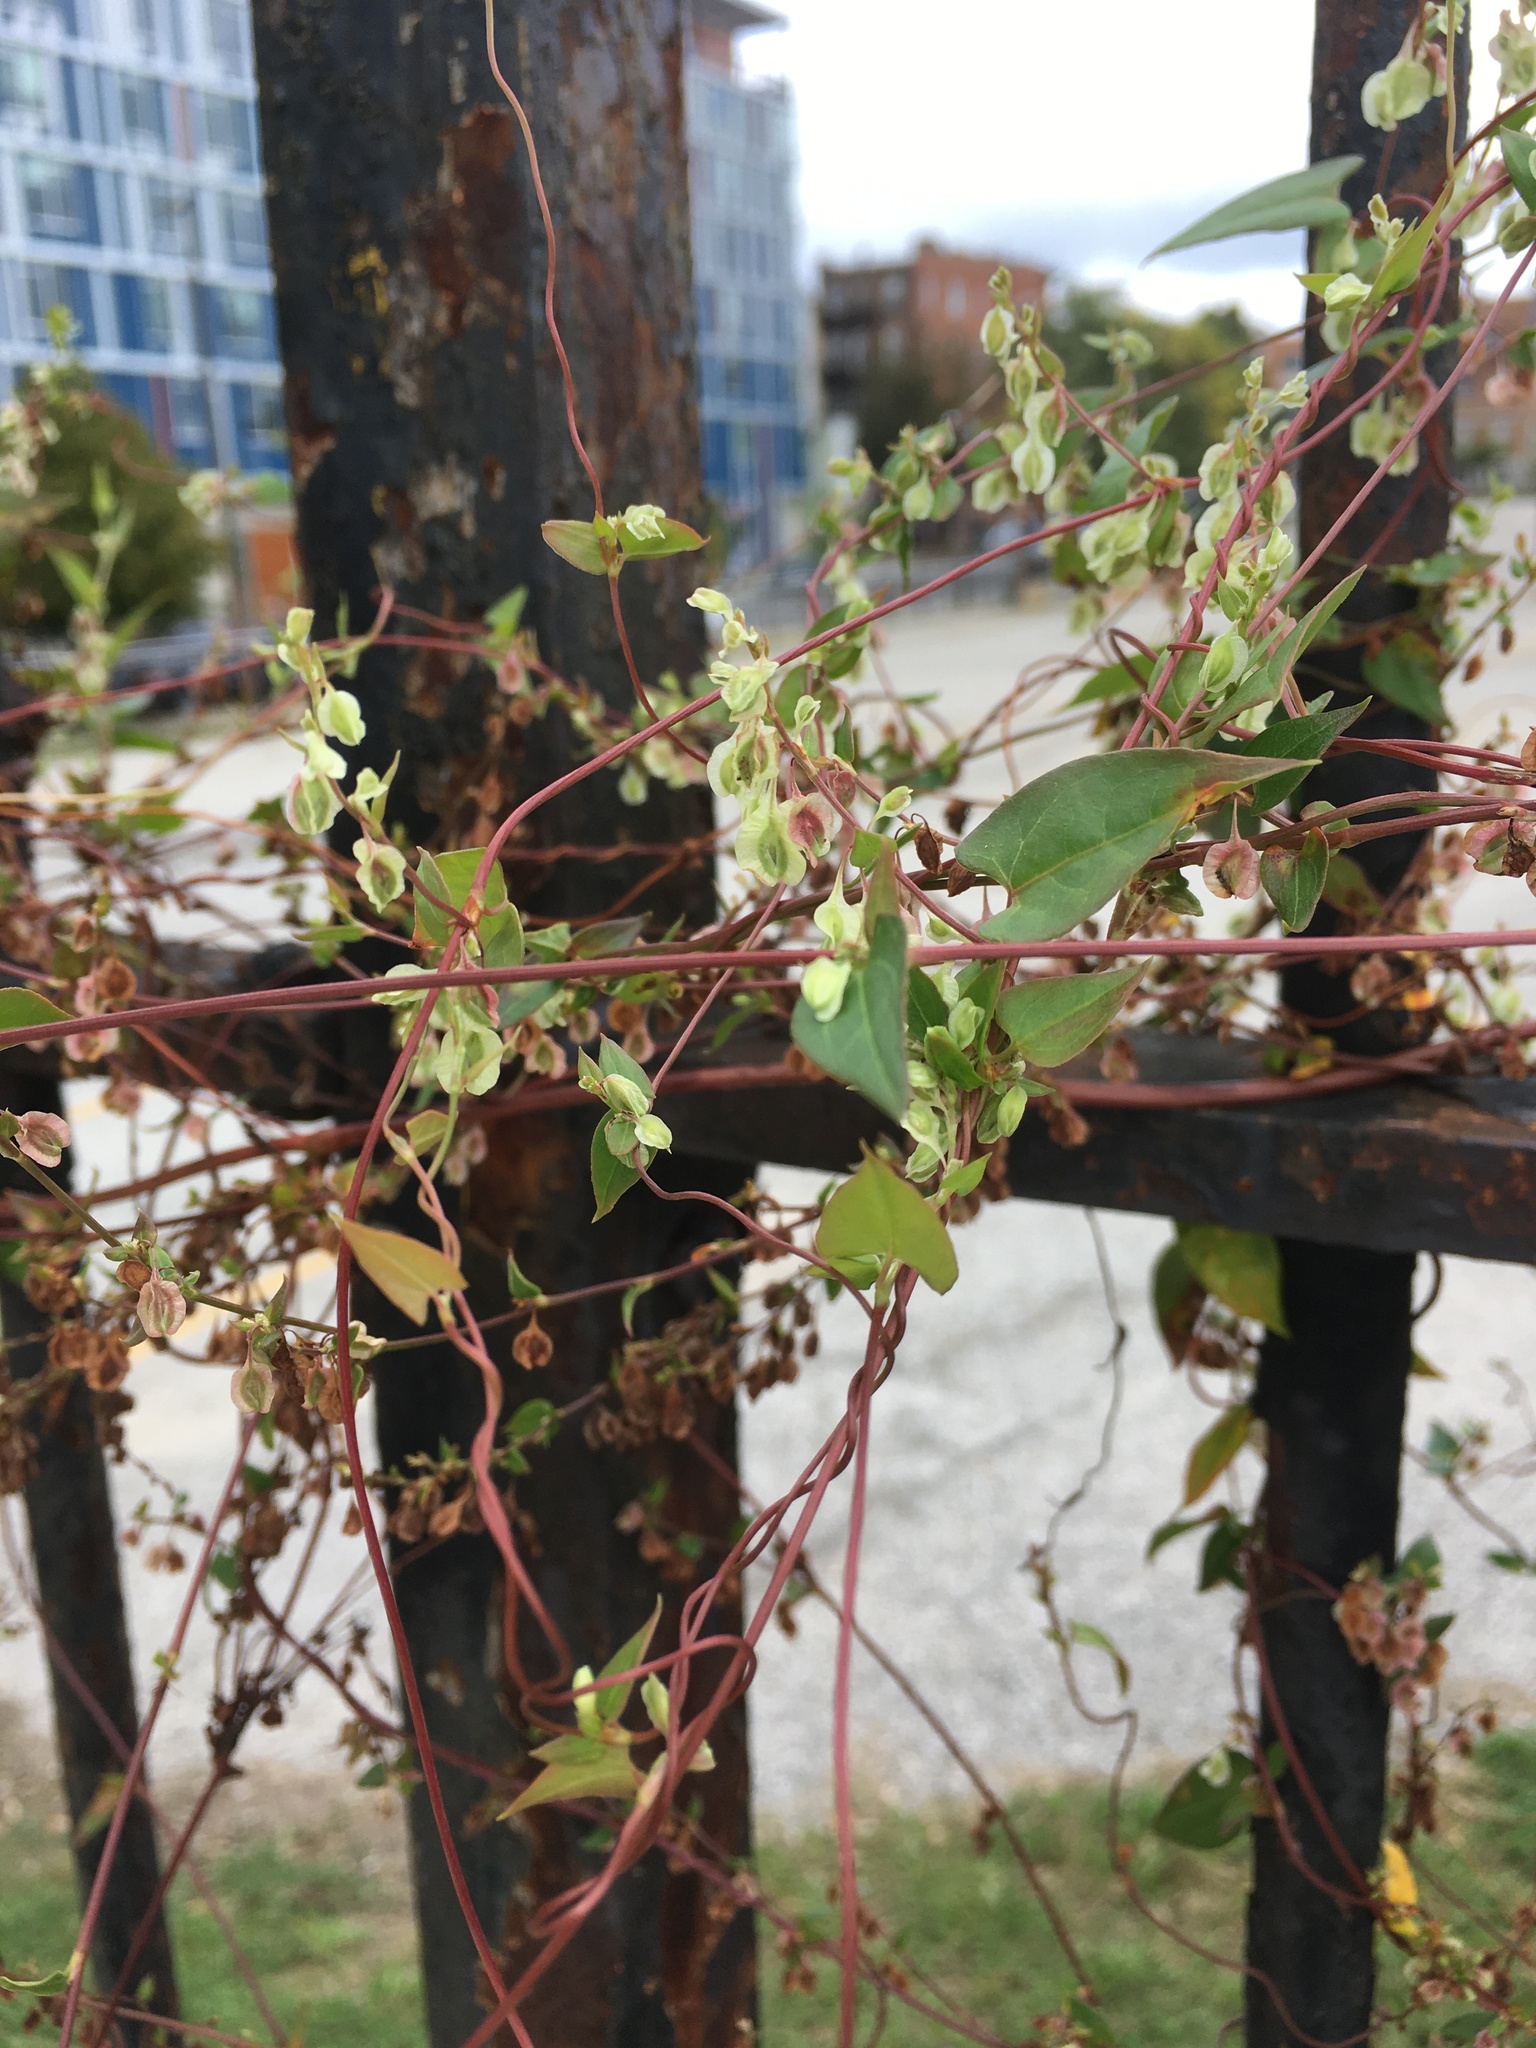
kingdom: Plantae
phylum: Tracheophyta
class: Magnoliopsida
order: Caryophyllales
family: Polygonaceae
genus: Fallopia
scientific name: Fallopia scandens
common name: Climbing false buckwheat
